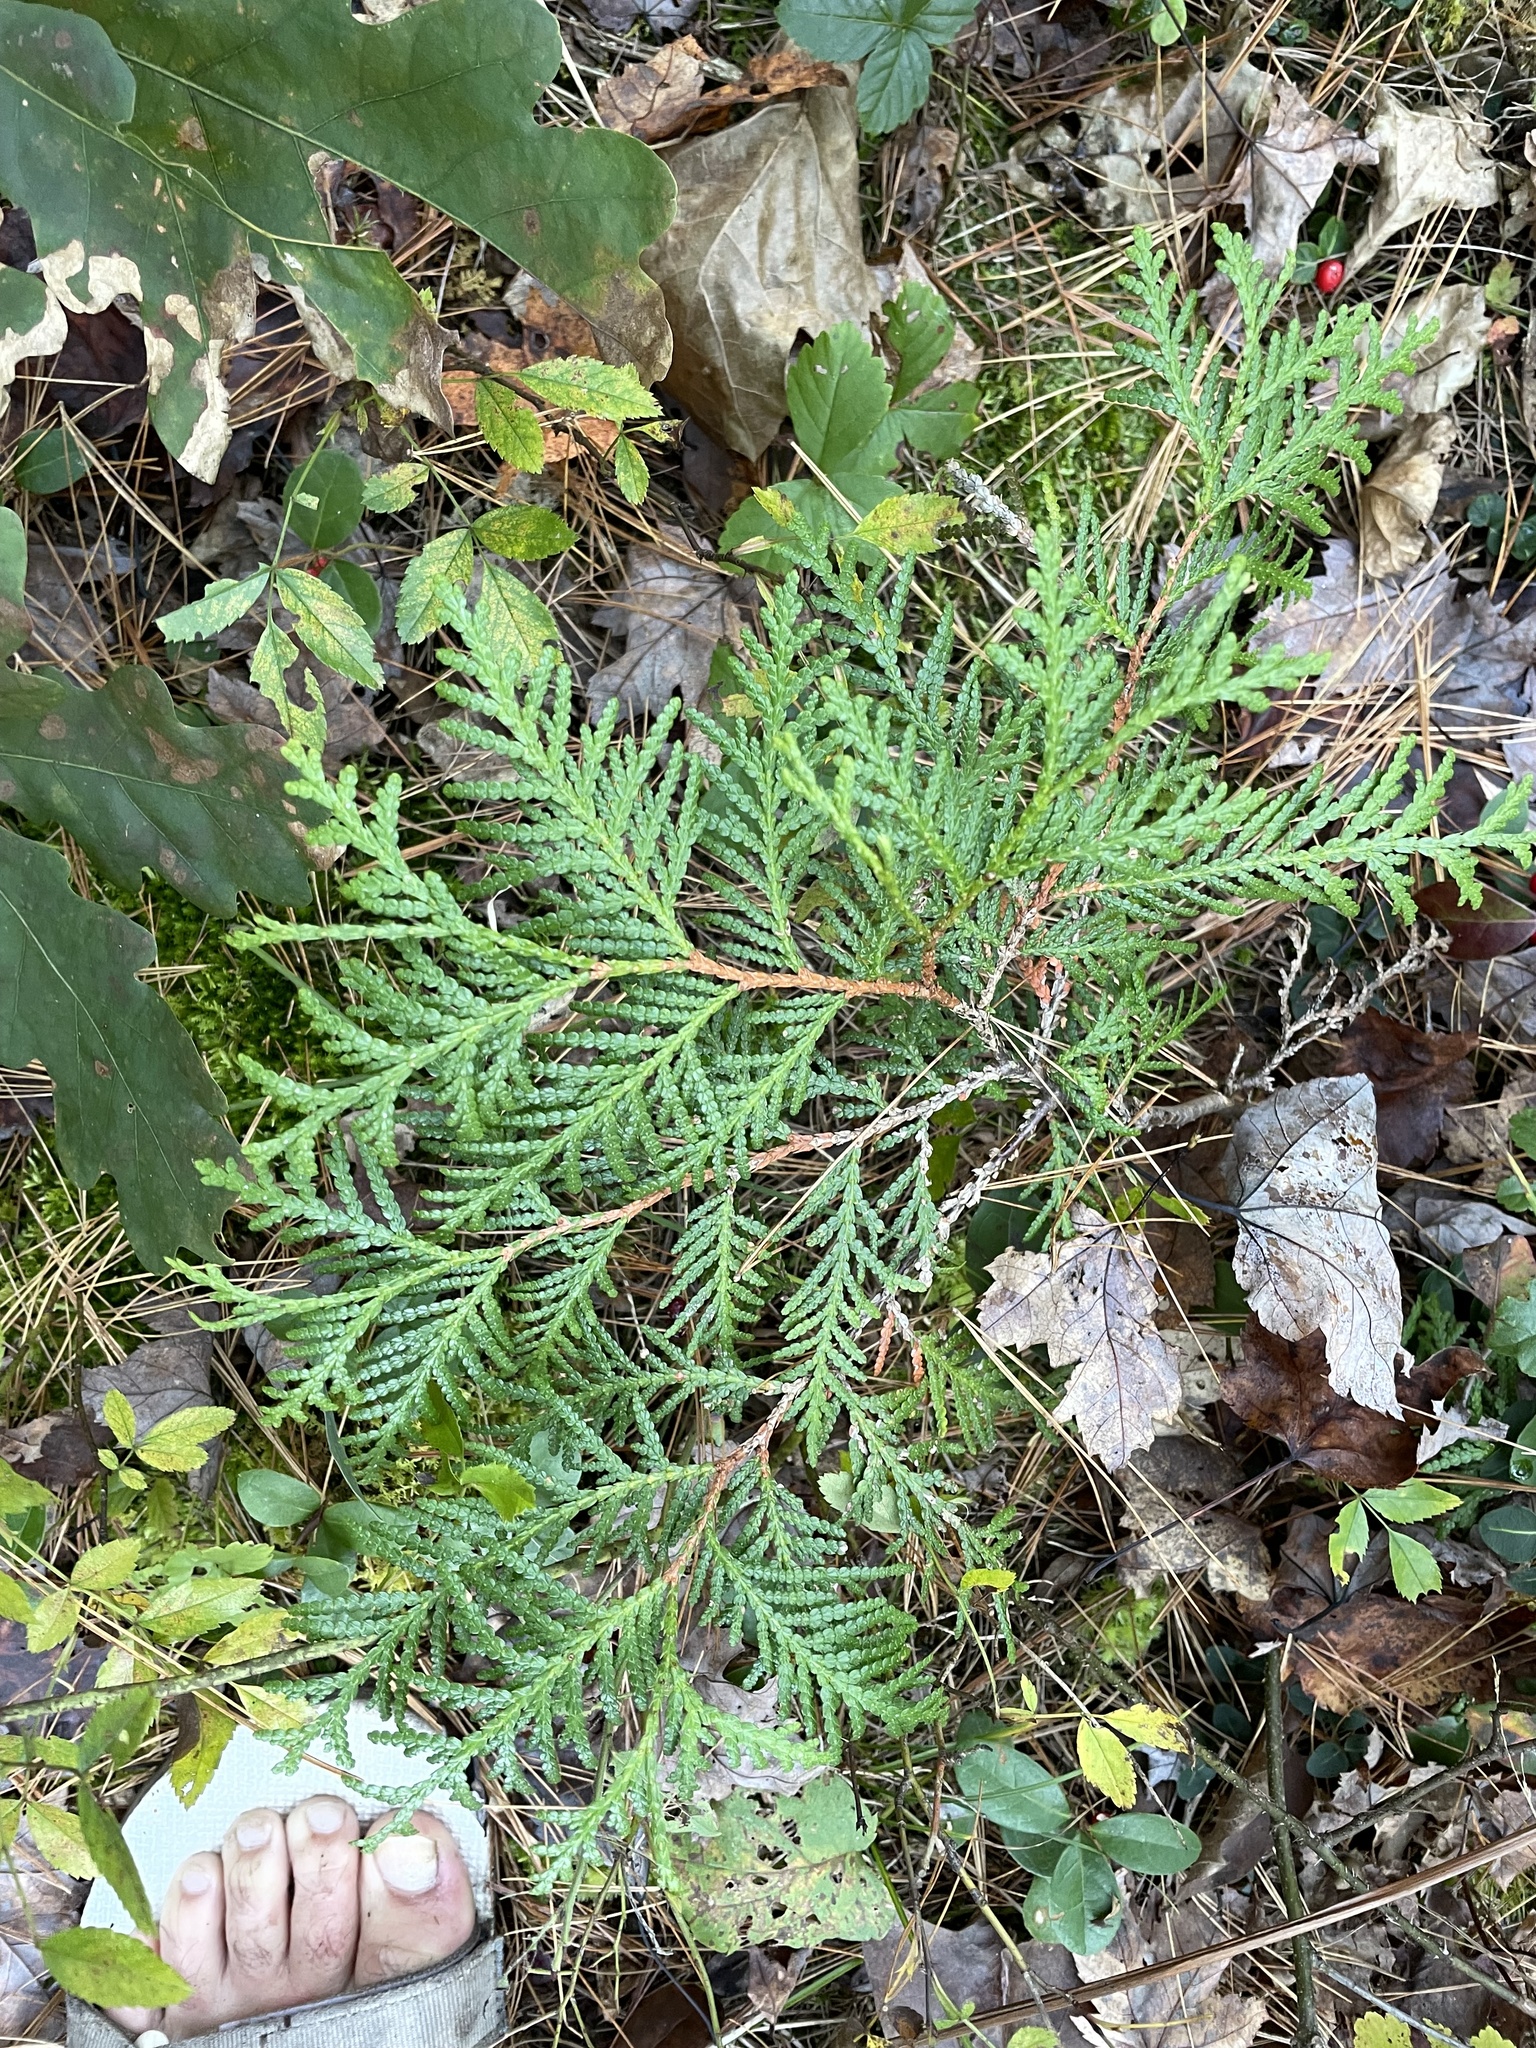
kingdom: Plantae
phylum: Tracheophyta
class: Pinopsida
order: Pinales
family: Cupressaceae
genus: Thuja
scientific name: Thuja occidentalis
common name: Northern white-cedar
